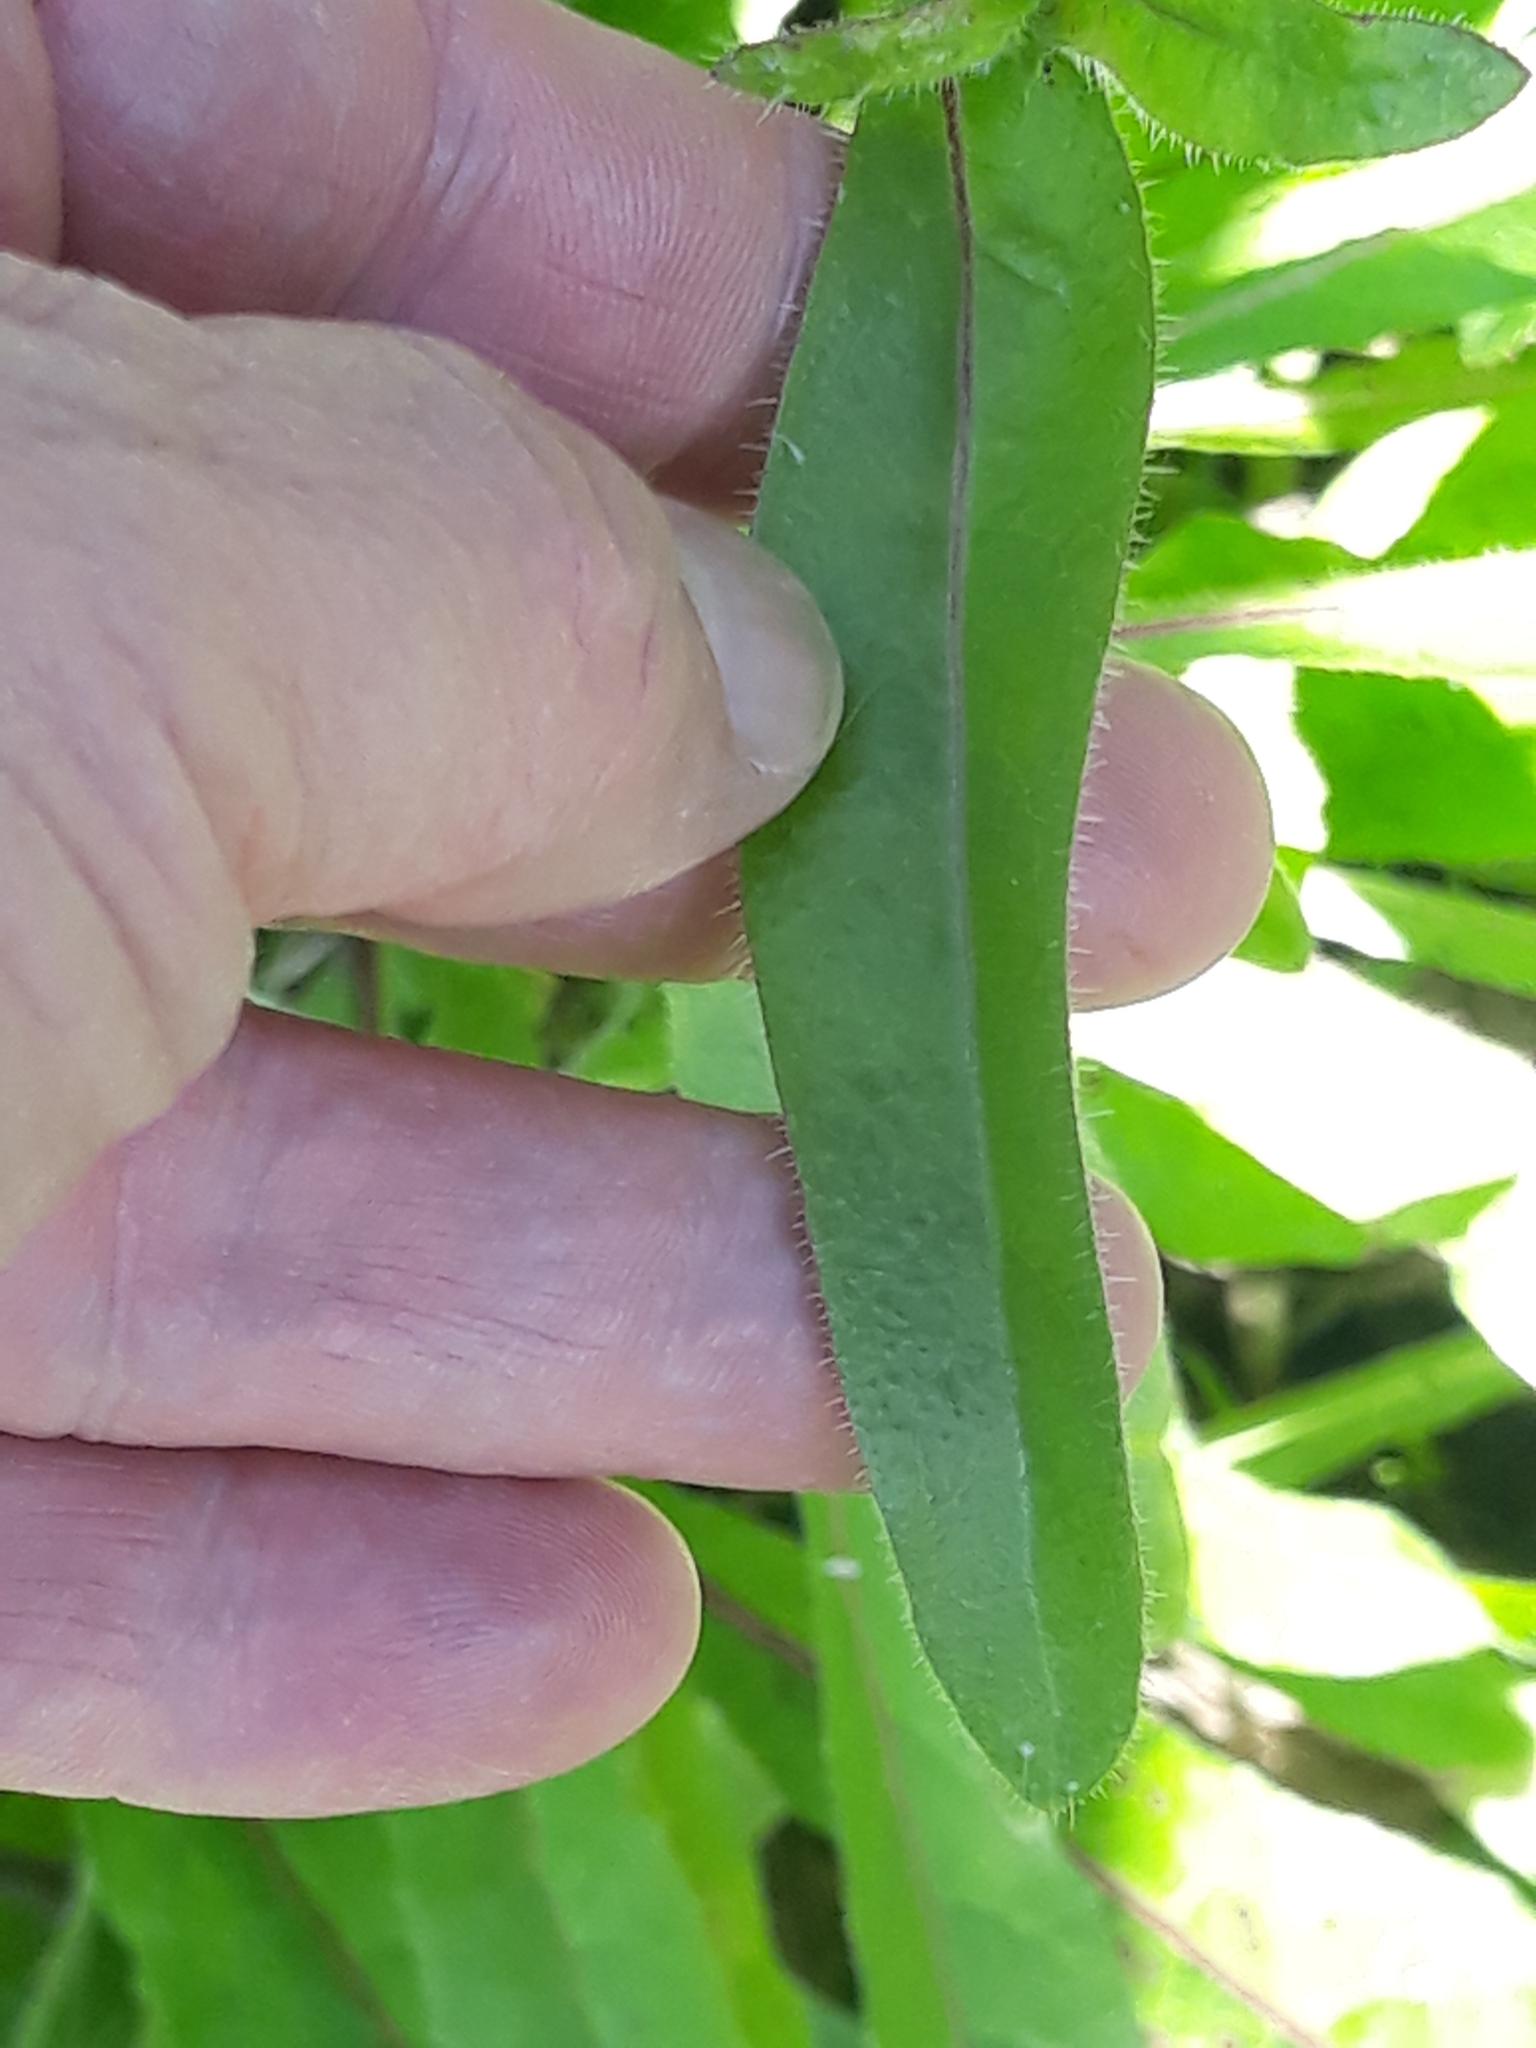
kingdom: Plantae
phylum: Tracheophyta
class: Magnoliopsida
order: Asterales
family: Asteraceae
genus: Helminthotheca
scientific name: Helminthotheca echioides
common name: Ox-tongue
